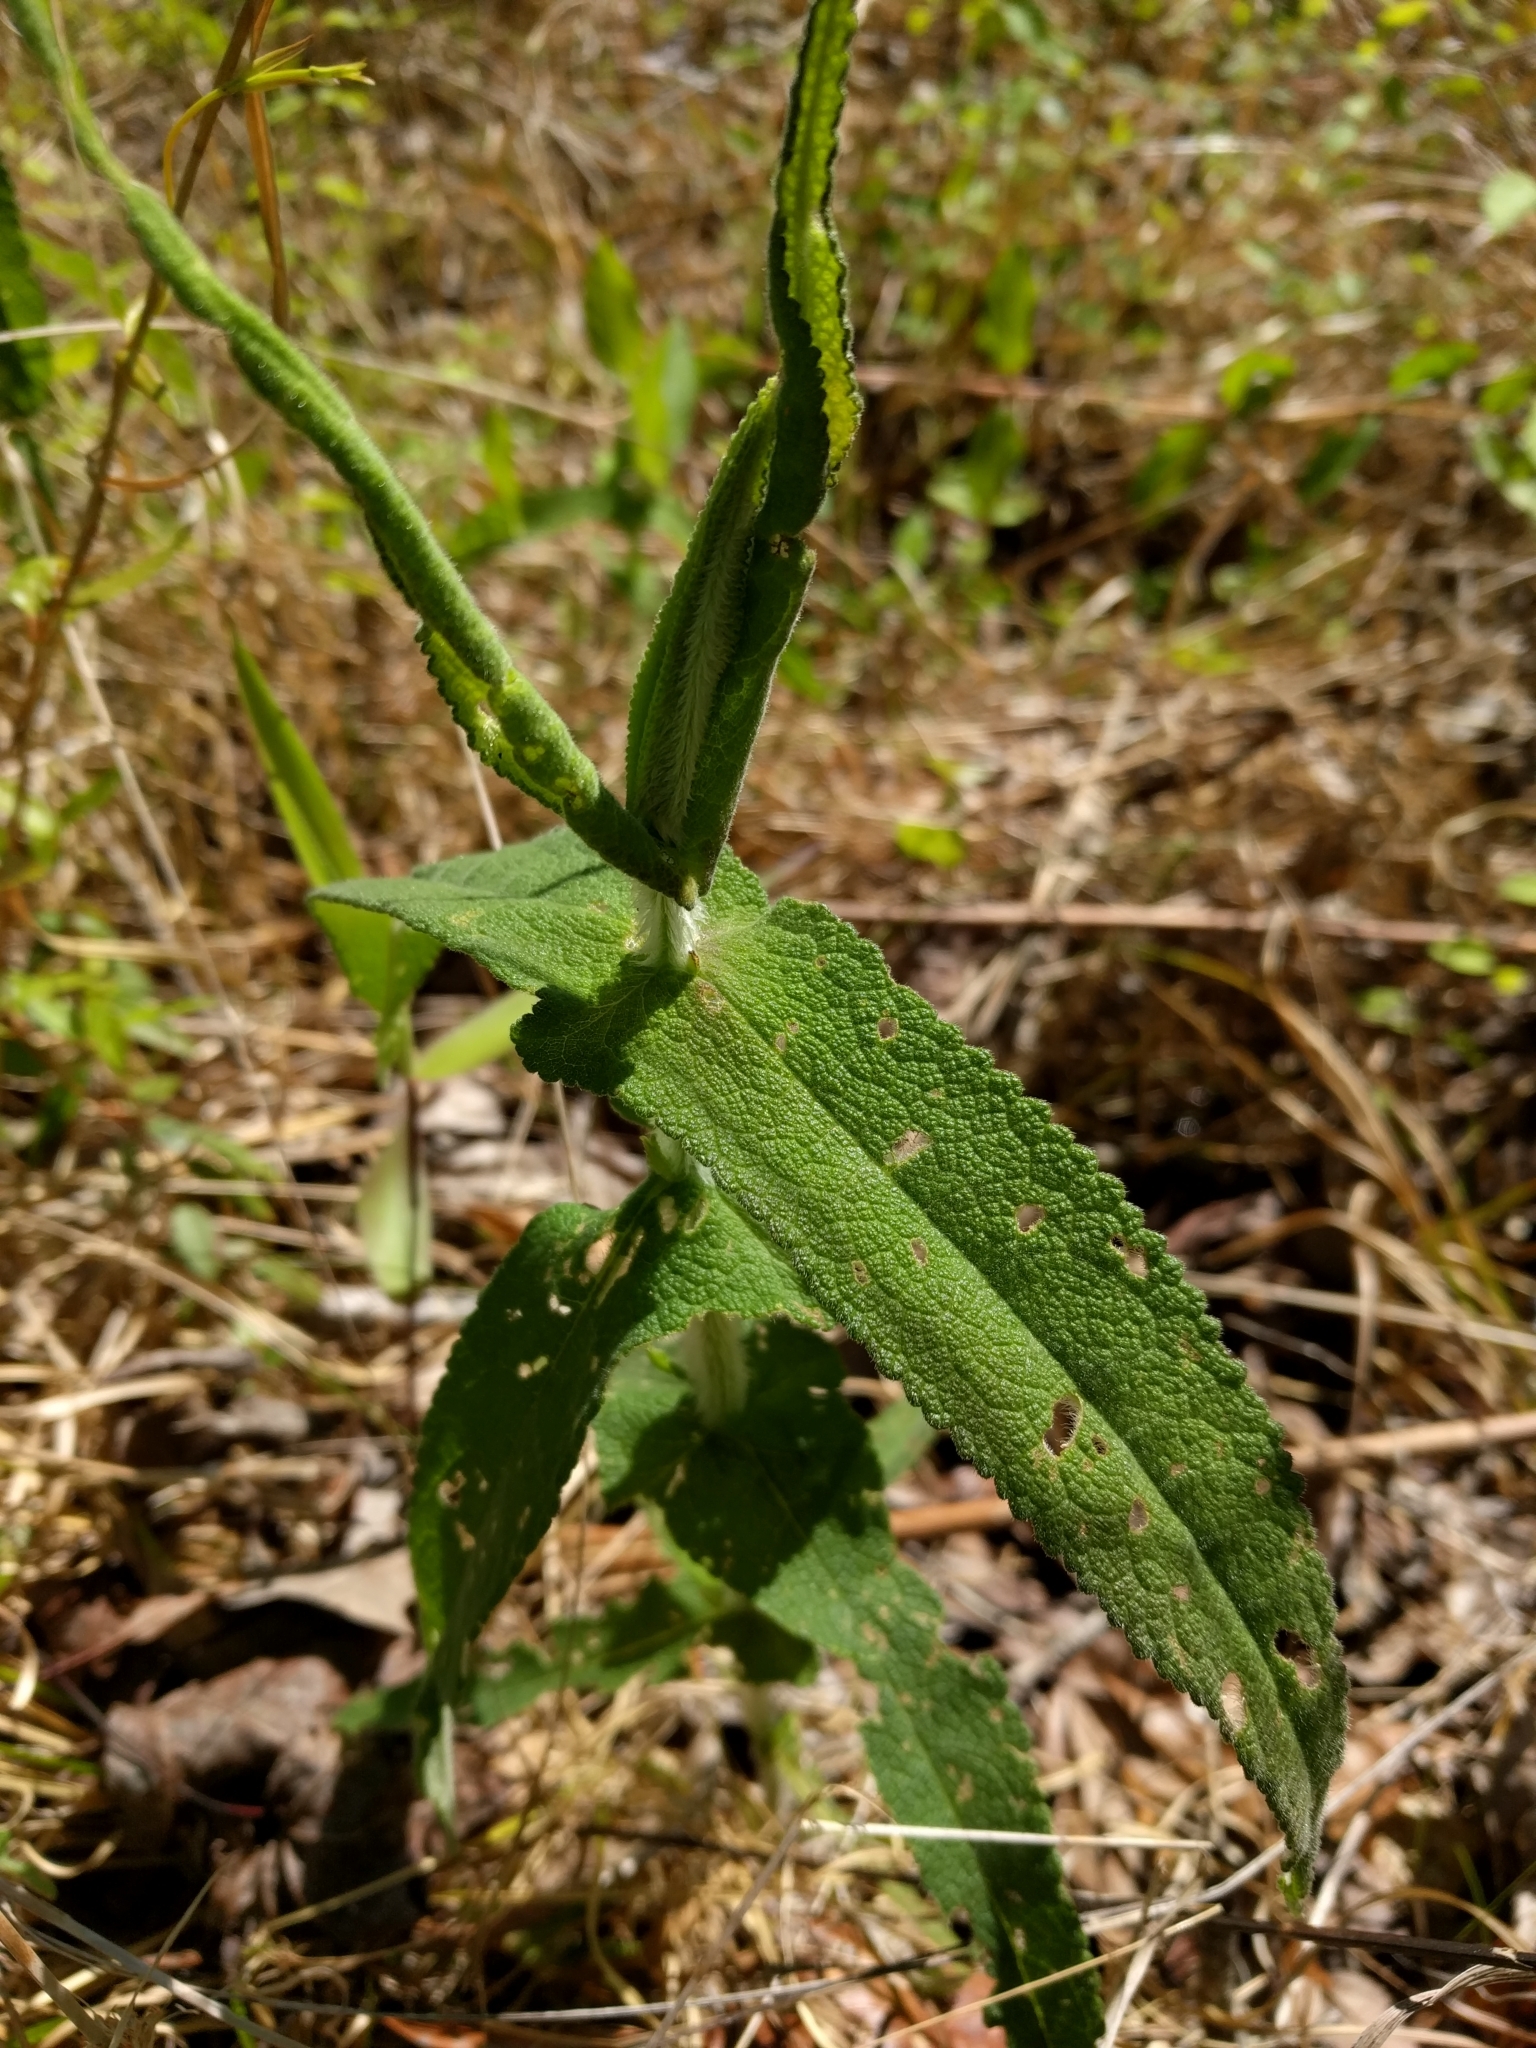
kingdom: Plantae
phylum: Tracheophyta
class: Magnoliopsida
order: Asterales
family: Asteraceae
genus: Eupatorium
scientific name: Eupatorium perfoliatum
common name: Boneset
